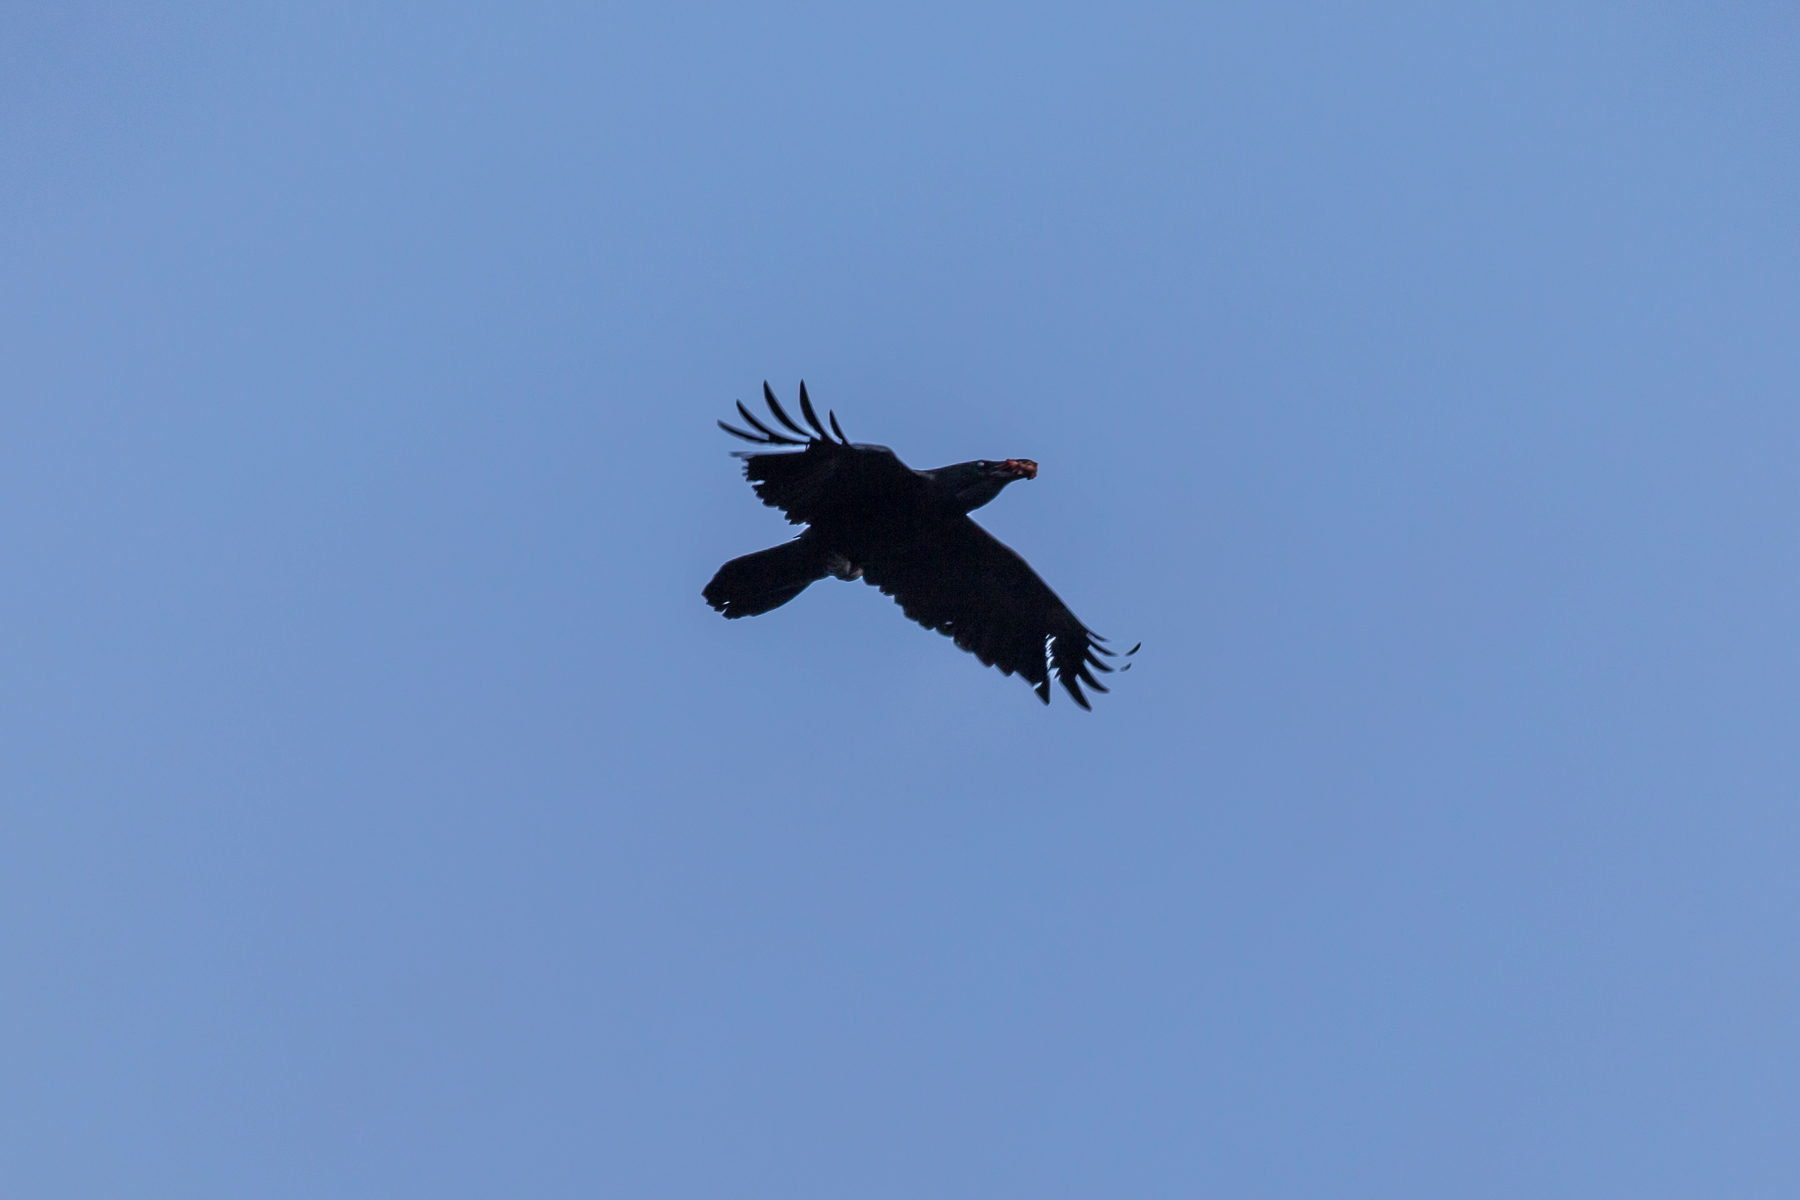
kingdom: Animalia
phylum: Chordata
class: Aves
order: Passeriformes
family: Corvidae
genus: Corvus
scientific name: Corvus corax
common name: Common raven
